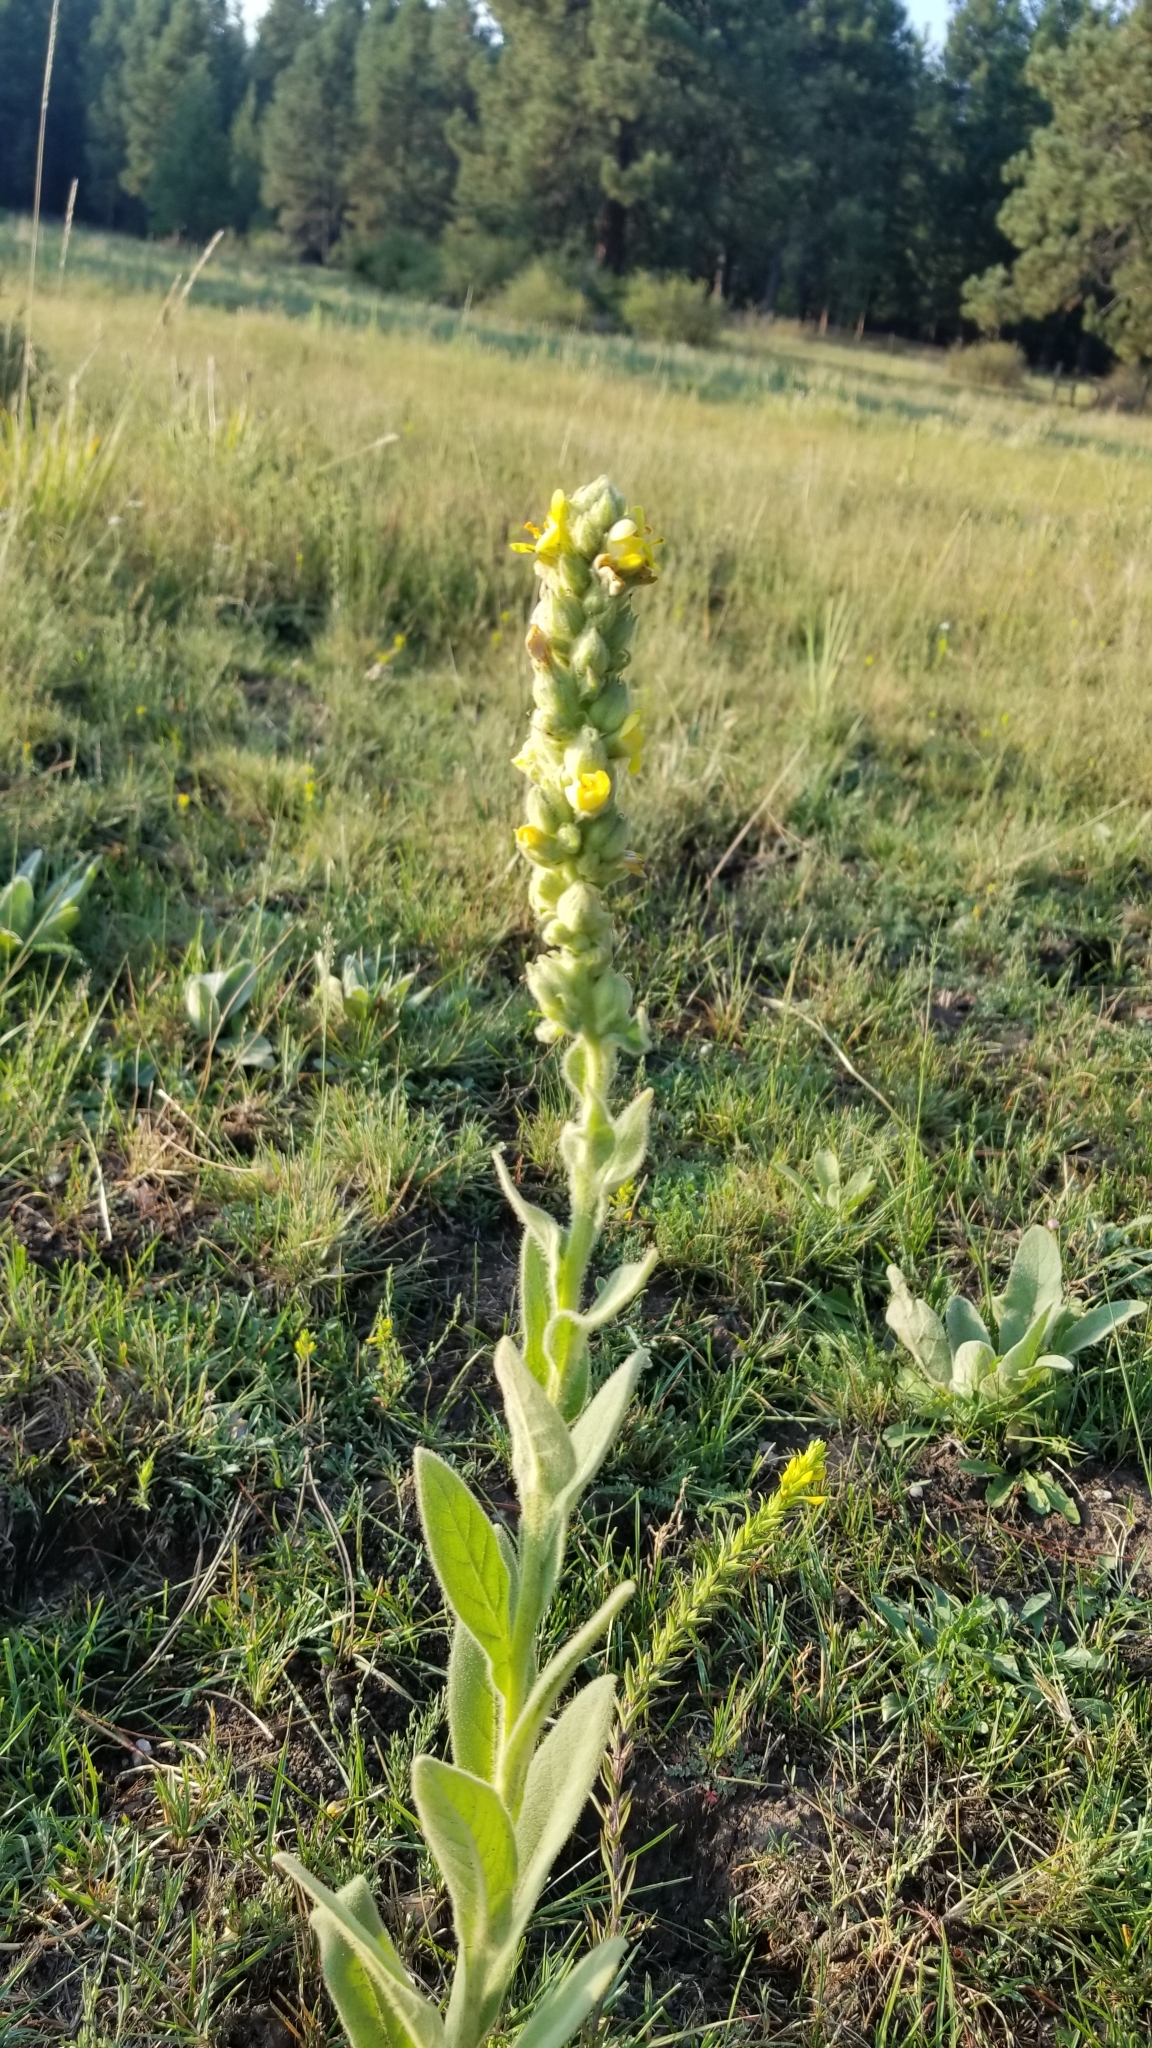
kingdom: Plantae
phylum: Tracheophyta
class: Magnoliopsida
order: Lamiales
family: Scrophulariaceae
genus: Verbascum
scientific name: Verbascum thapsus
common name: Common mullein
